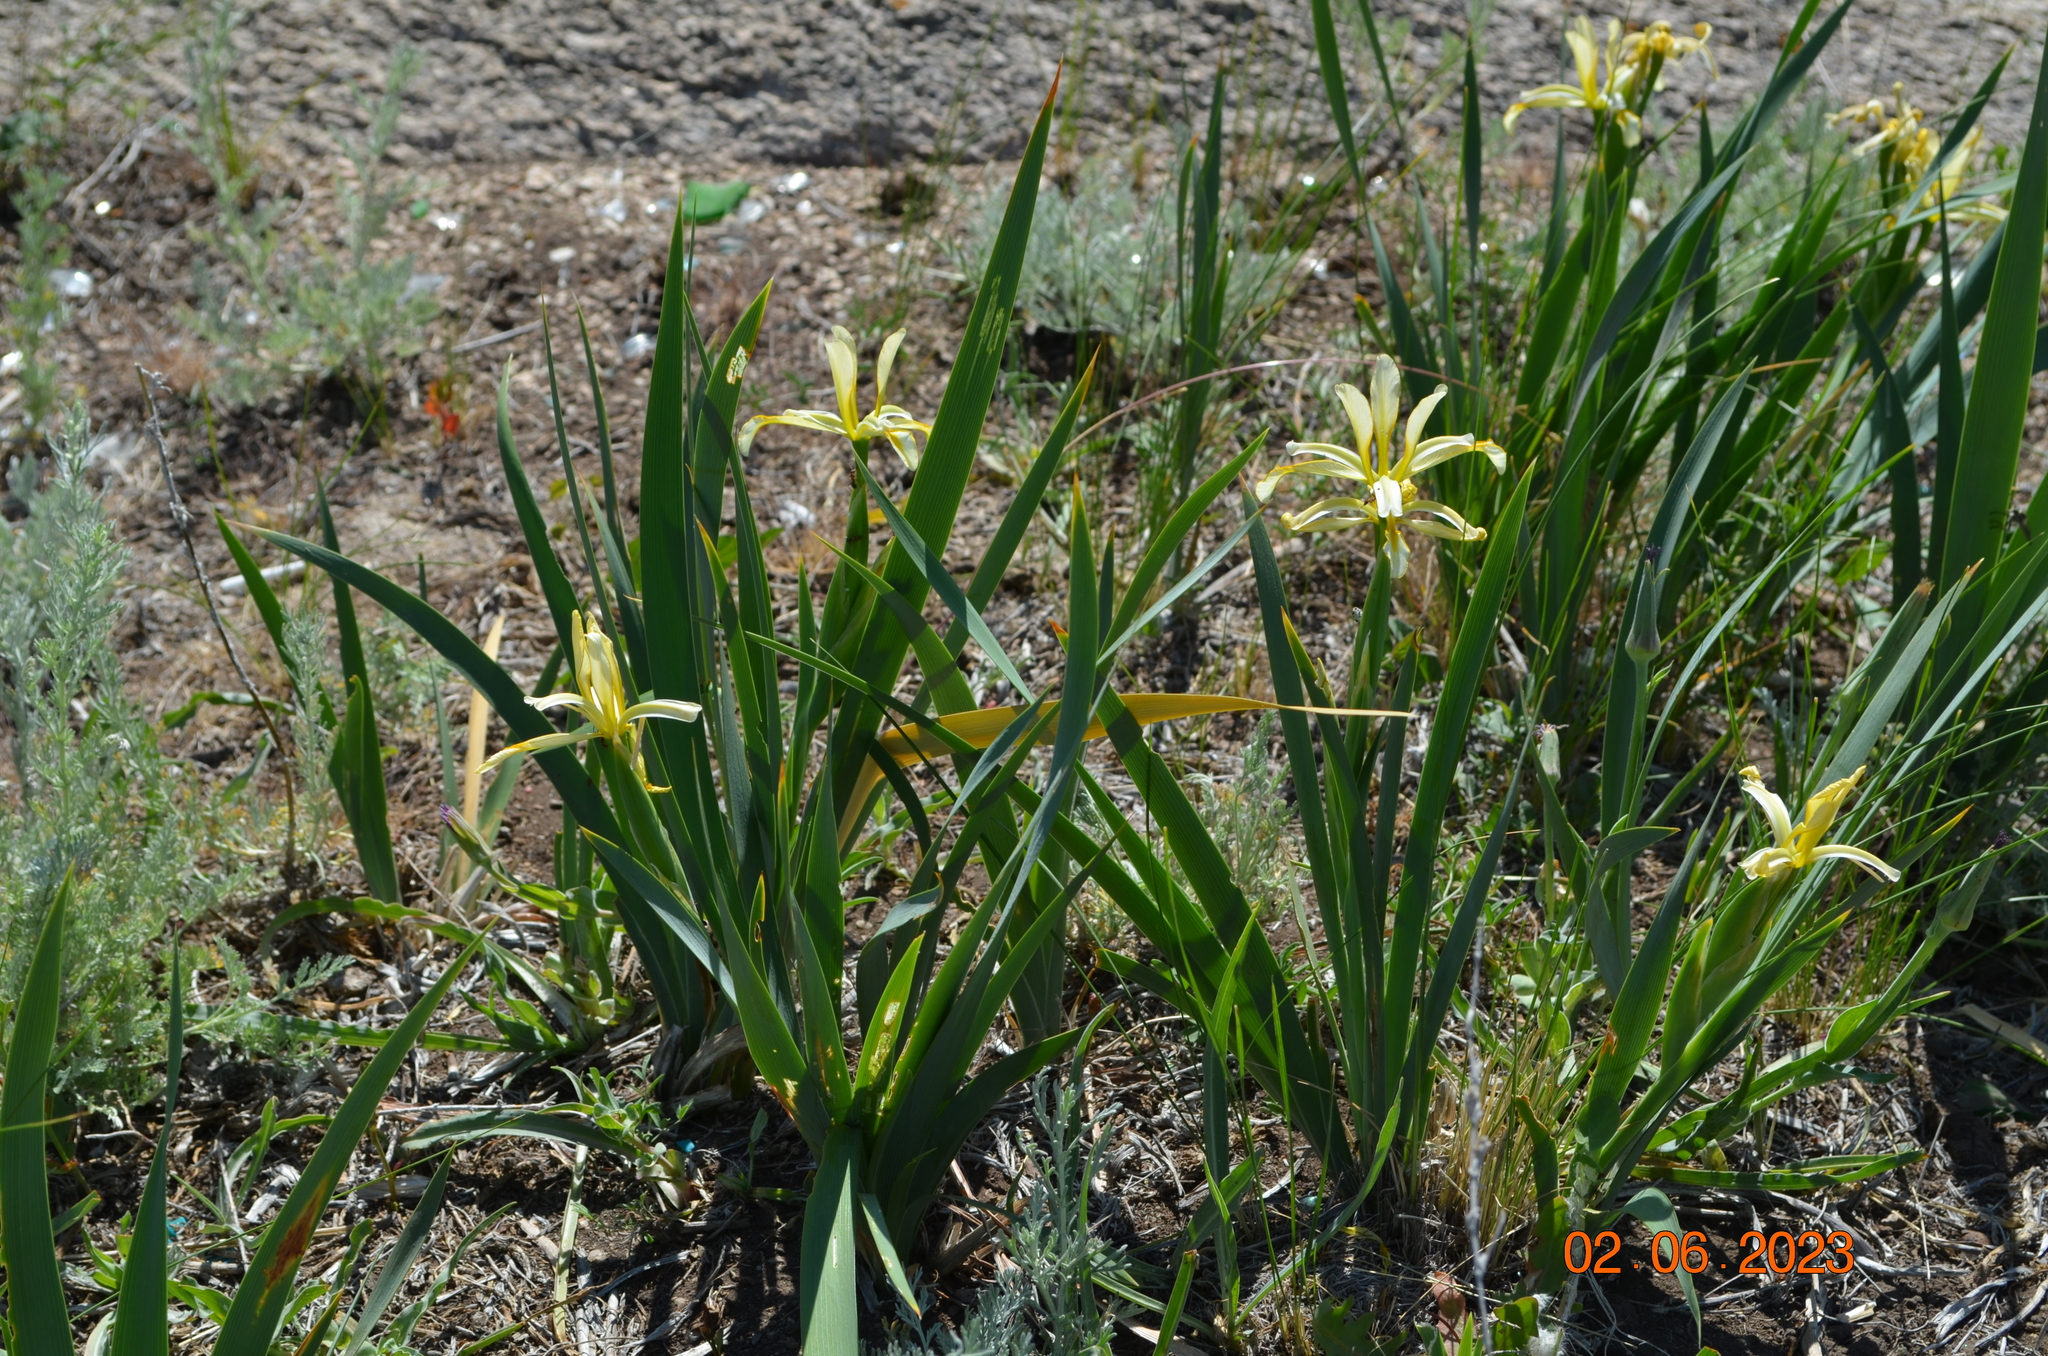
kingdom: Plantae
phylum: Tracheophyta
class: Liliopsida
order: Asparagales
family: Iridaceae
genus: Iris
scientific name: Iris halophila
